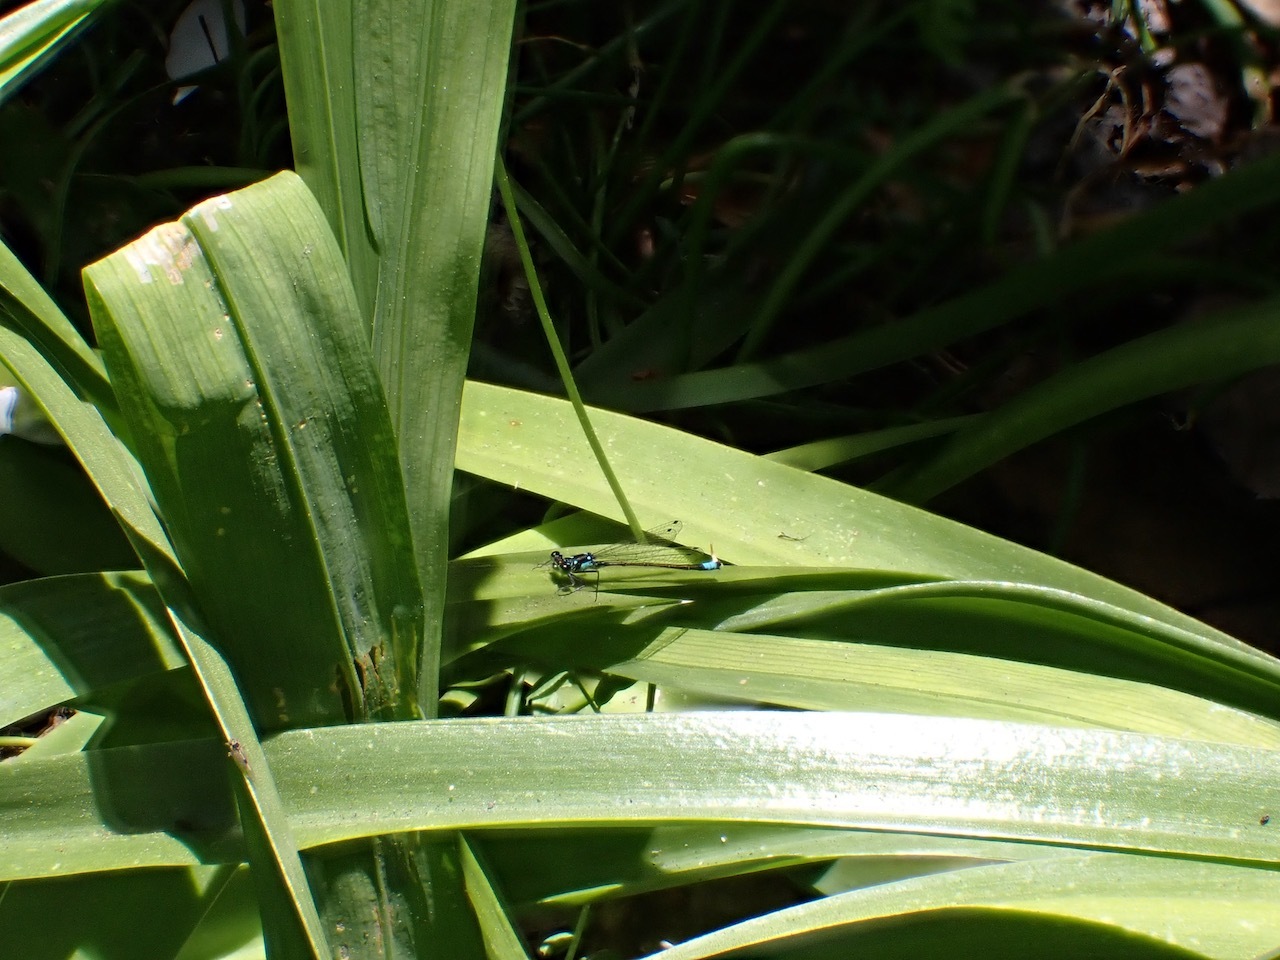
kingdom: Animalia
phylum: Arthropoda
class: Insecta
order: Odonata
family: Coenagrionidae
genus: Ischnura
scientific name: Ischnura cervula
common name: Pacific forktail
